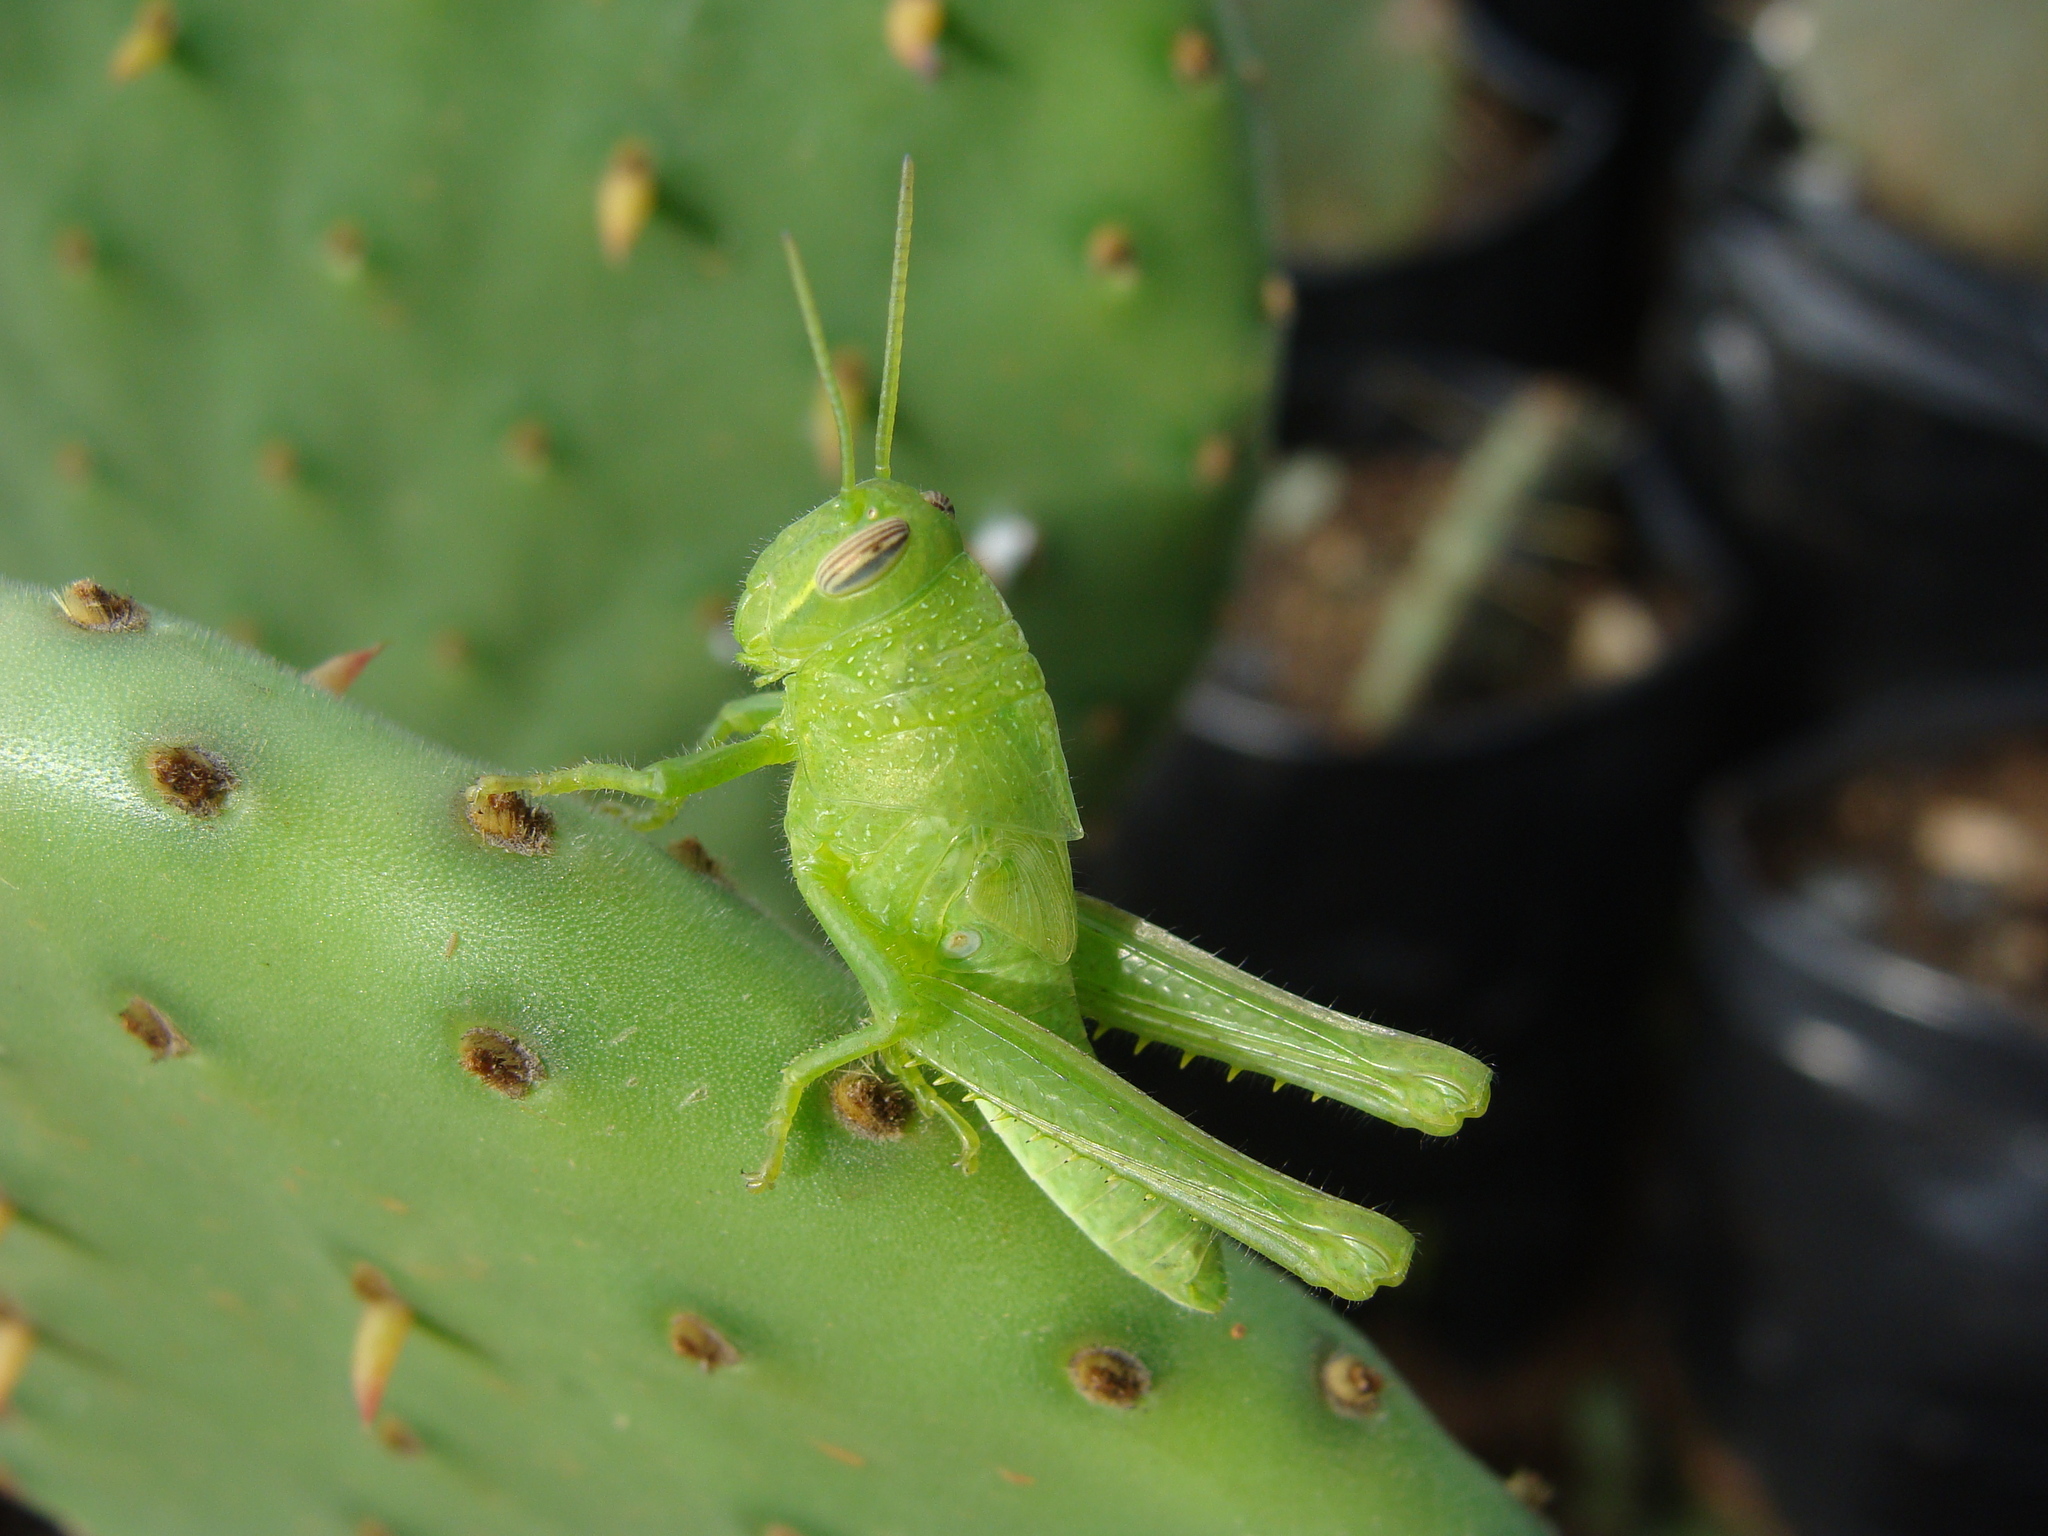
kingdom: Animalia
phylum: Arthropoda
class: Insecta
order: Orthoptera
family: Acrididae
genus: Schistocerca
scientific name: Schistocerca nitens
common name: Vagrant grasshopper
